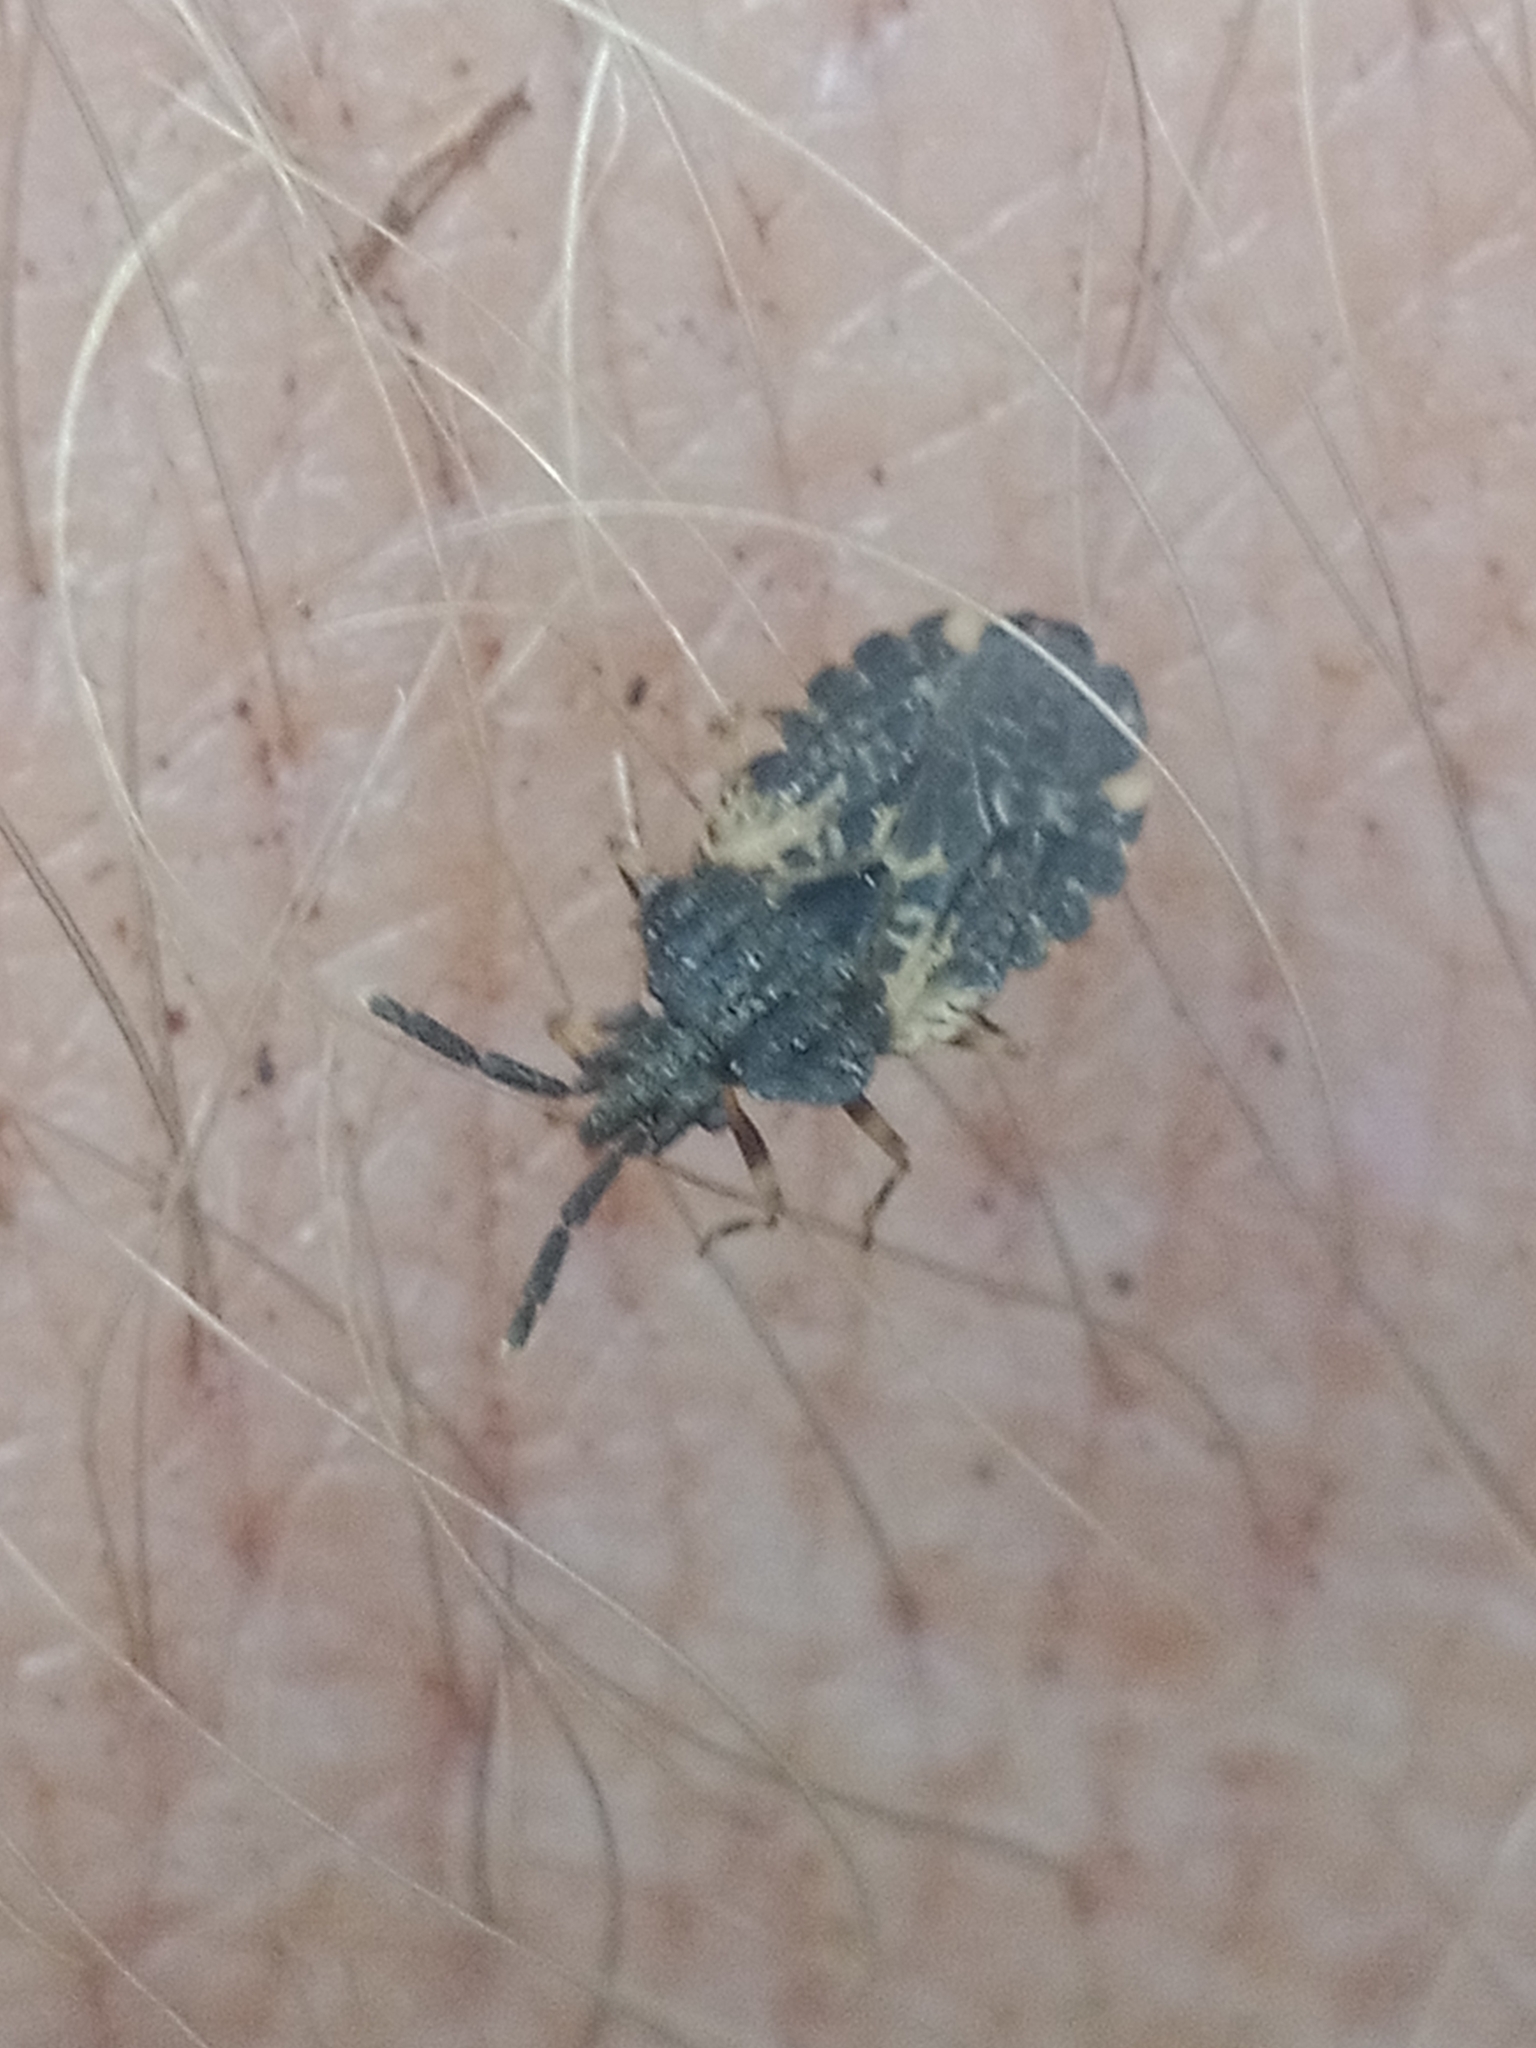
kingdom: Animalia
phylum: Arthropoda
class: Insecta
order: Hemiptera
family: Aradidae
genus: Aradus
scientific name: Aradus truncatus
